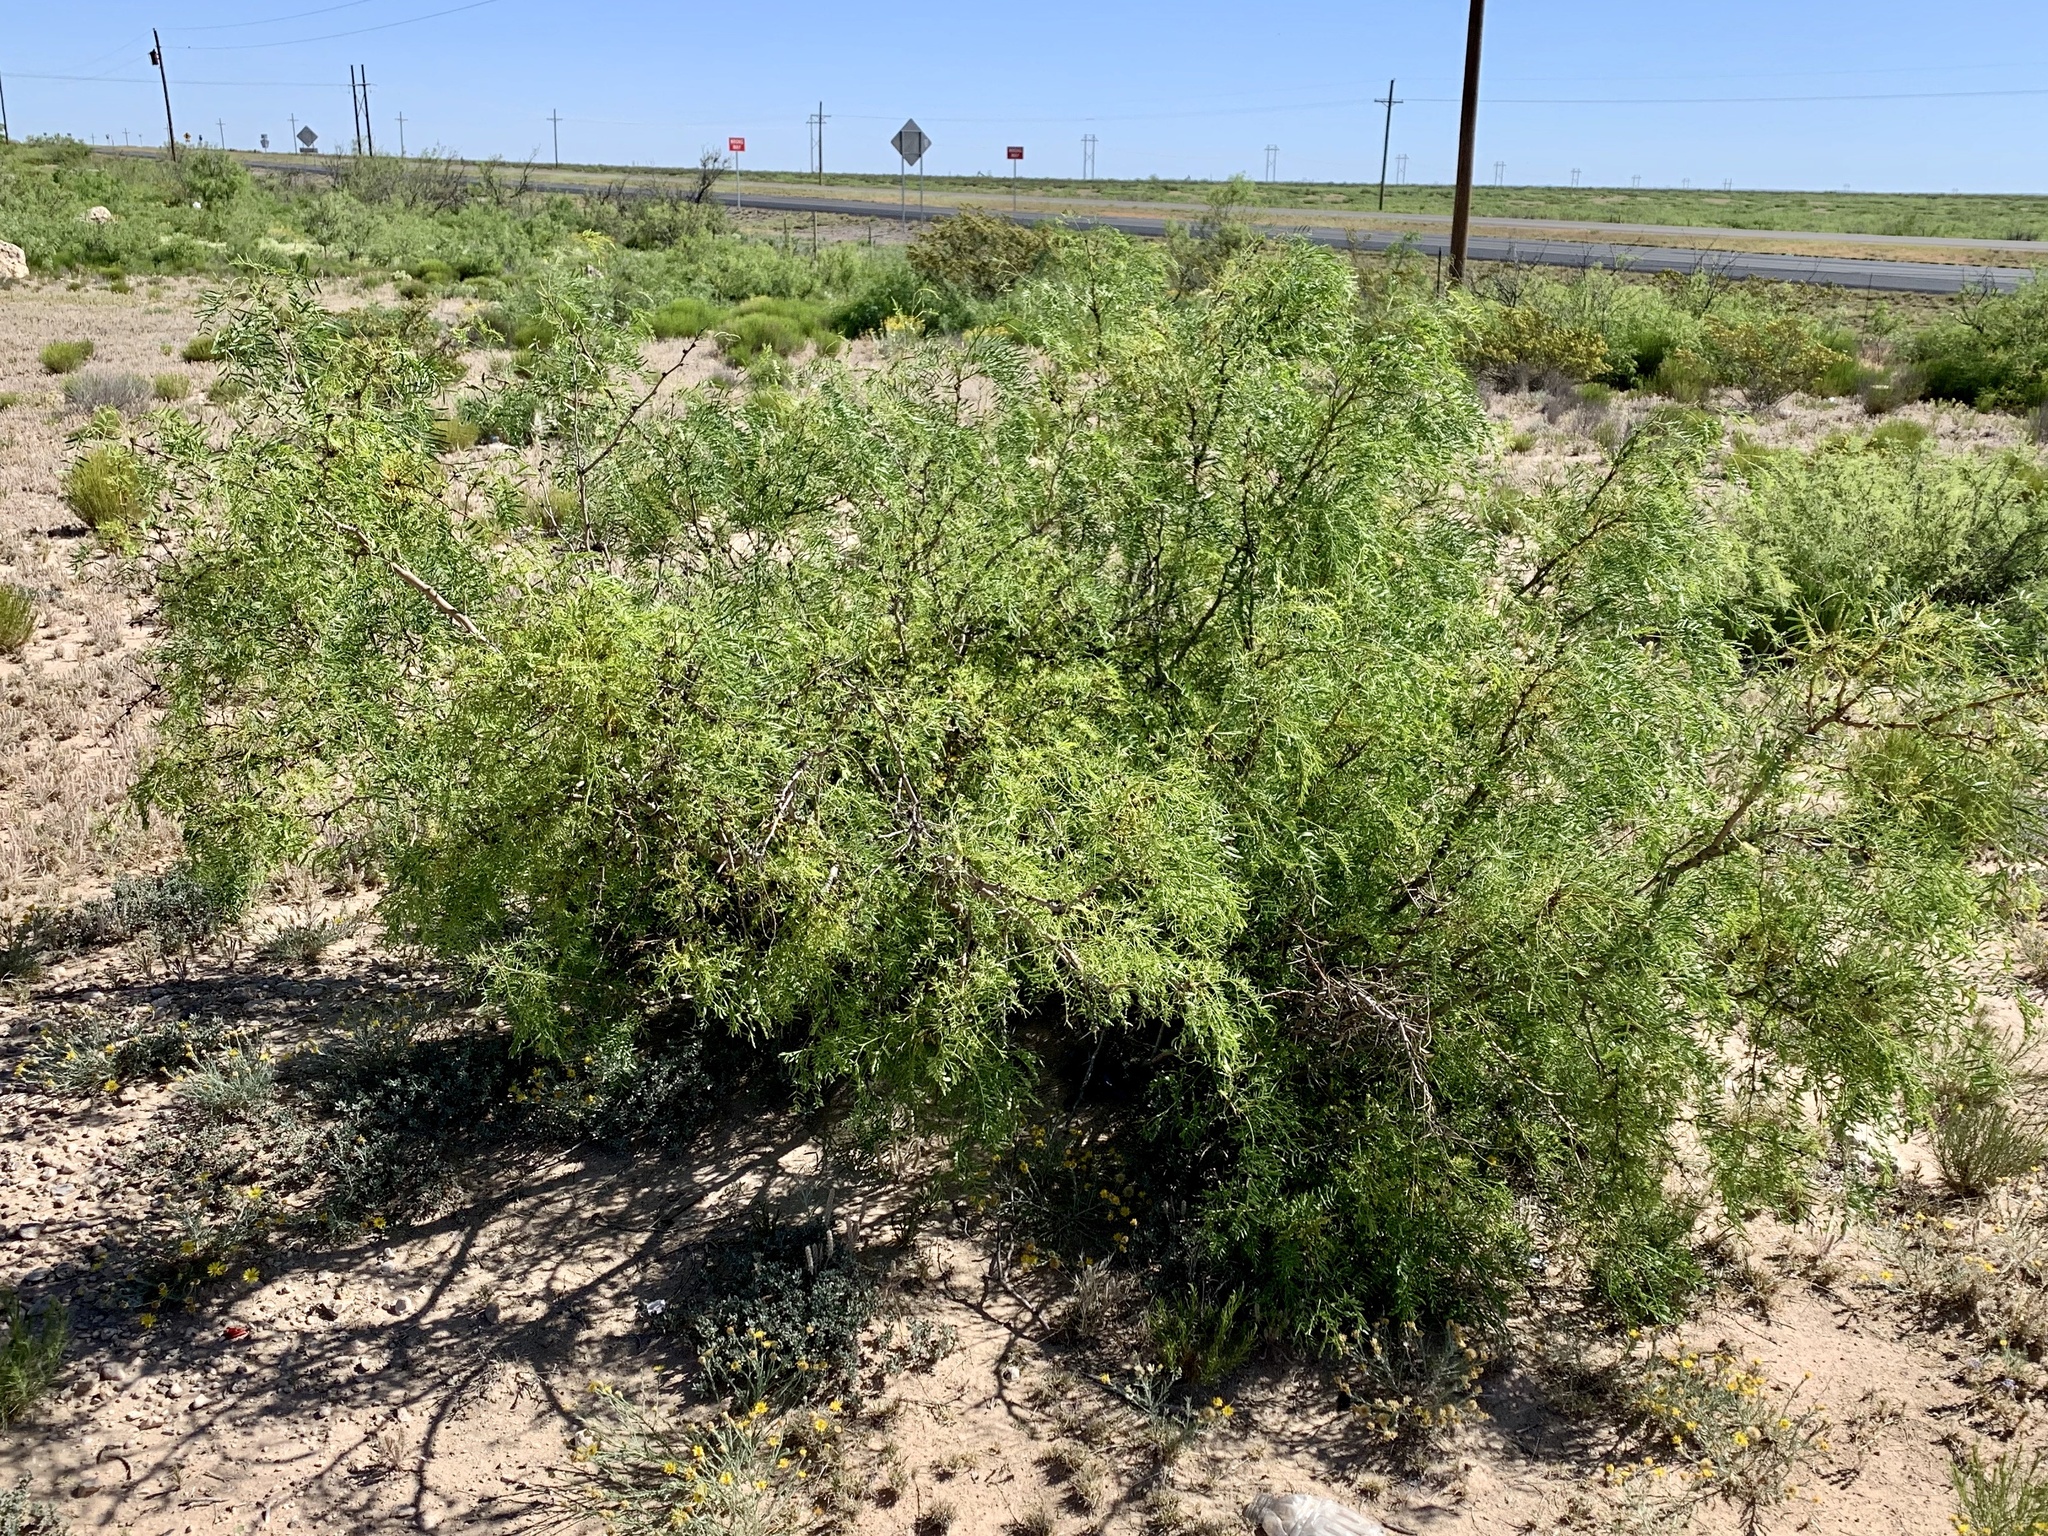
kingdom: Plantae
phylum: Tracheophyta
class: Magnoliopsida
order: Fabales
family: Fabaceae
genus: Prosopis
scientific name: Prosopis glandulosa
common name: Honey mesquite
